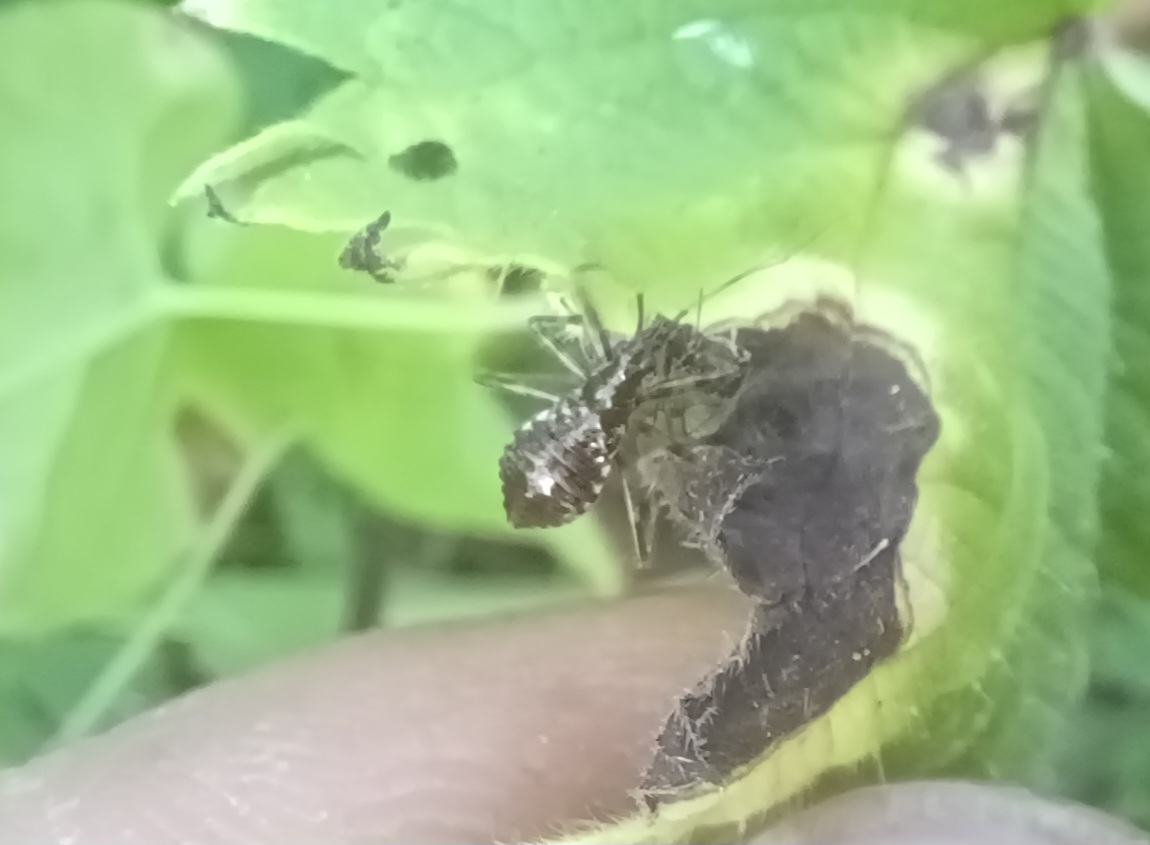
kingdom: Animalia
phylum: Arthropoda
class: Insecta
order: Hemiptera
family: Nabidae
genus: Himacerus
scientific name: Himacerus apterus
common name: Tree damsel bug
